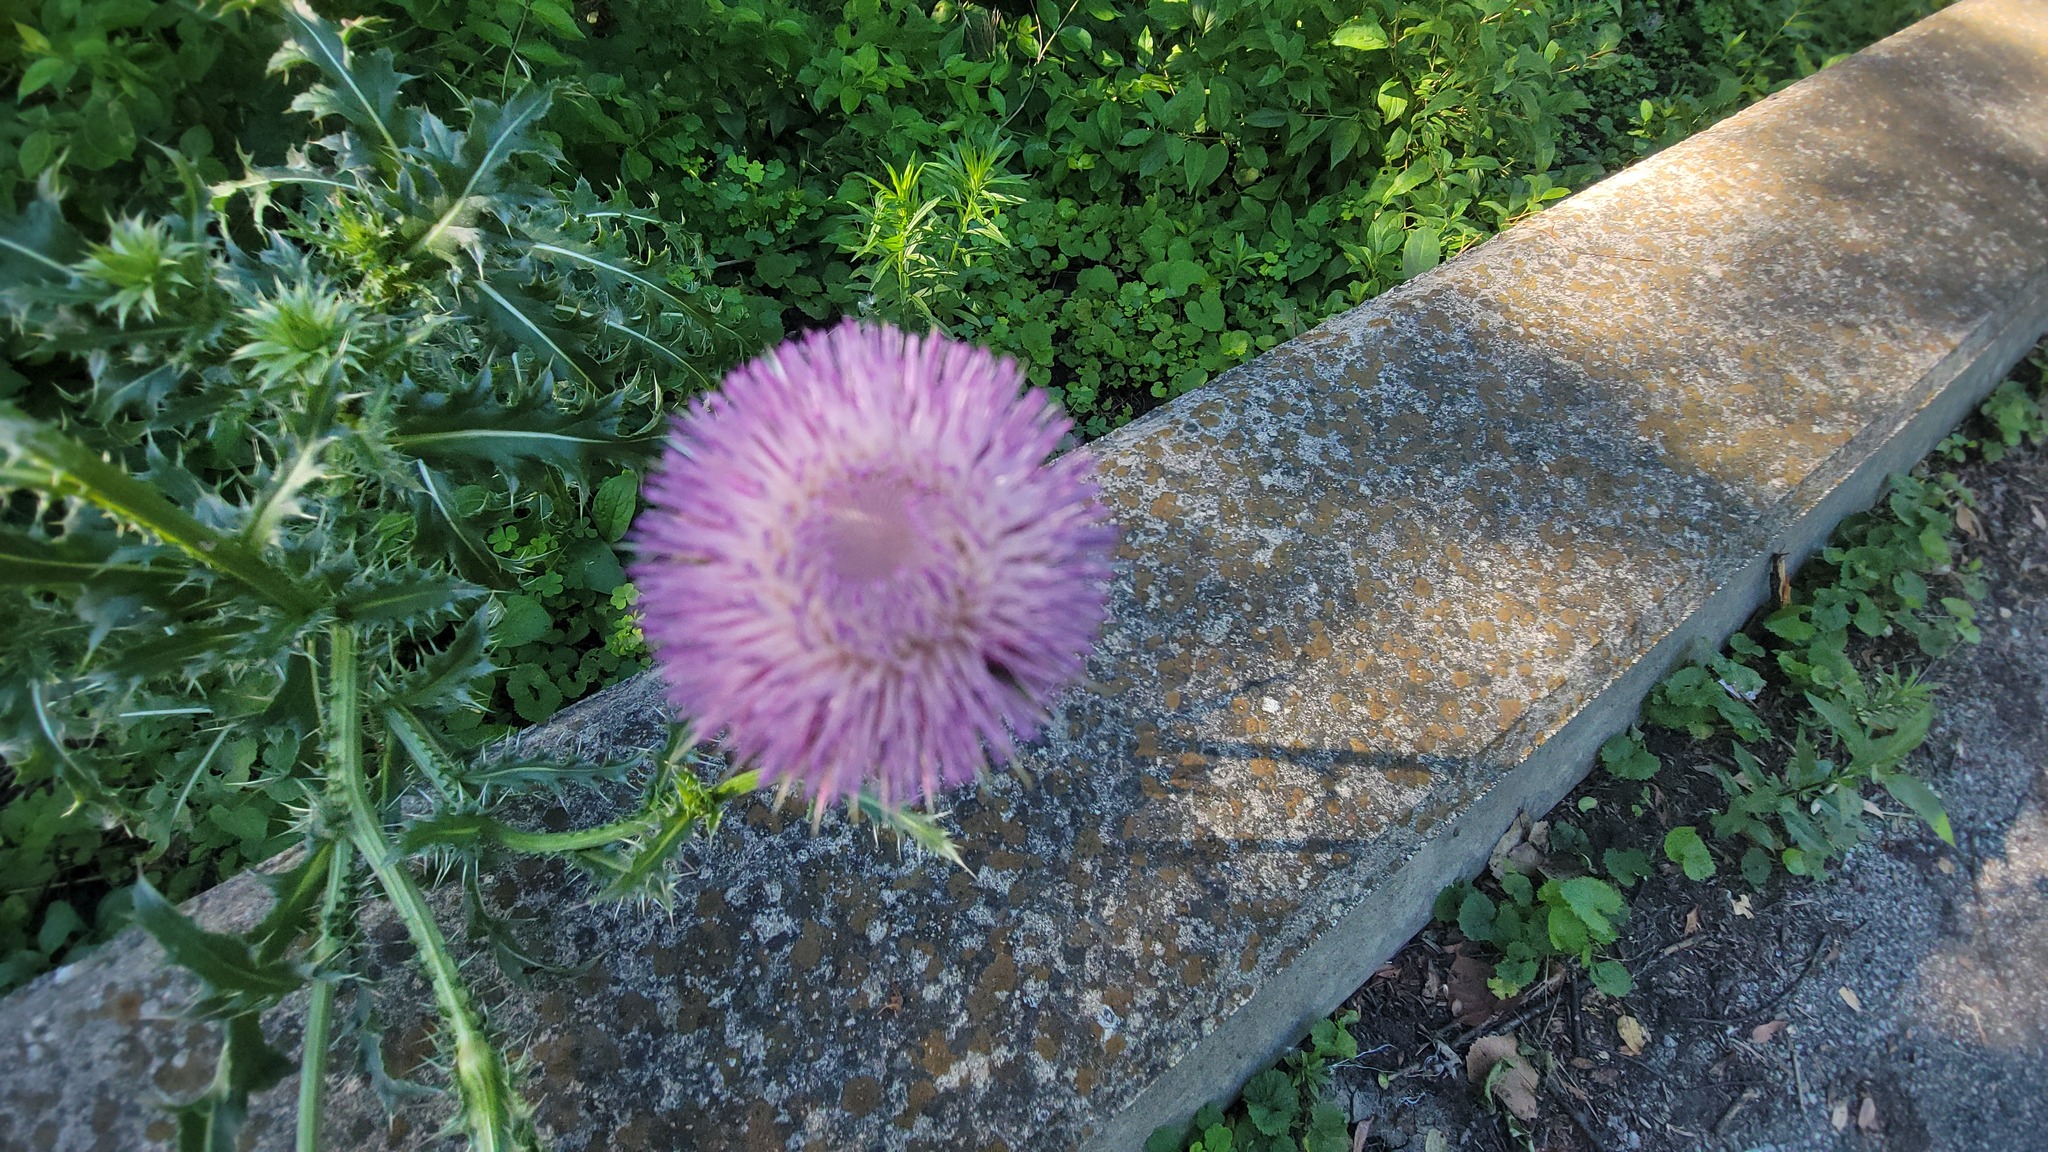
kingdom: Plantae
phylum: Tracheophyta
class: Magnoliopsida
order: Asterales
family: Asteraceae
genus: Carduus
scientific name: Carduus nutans
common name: Musk thistle
